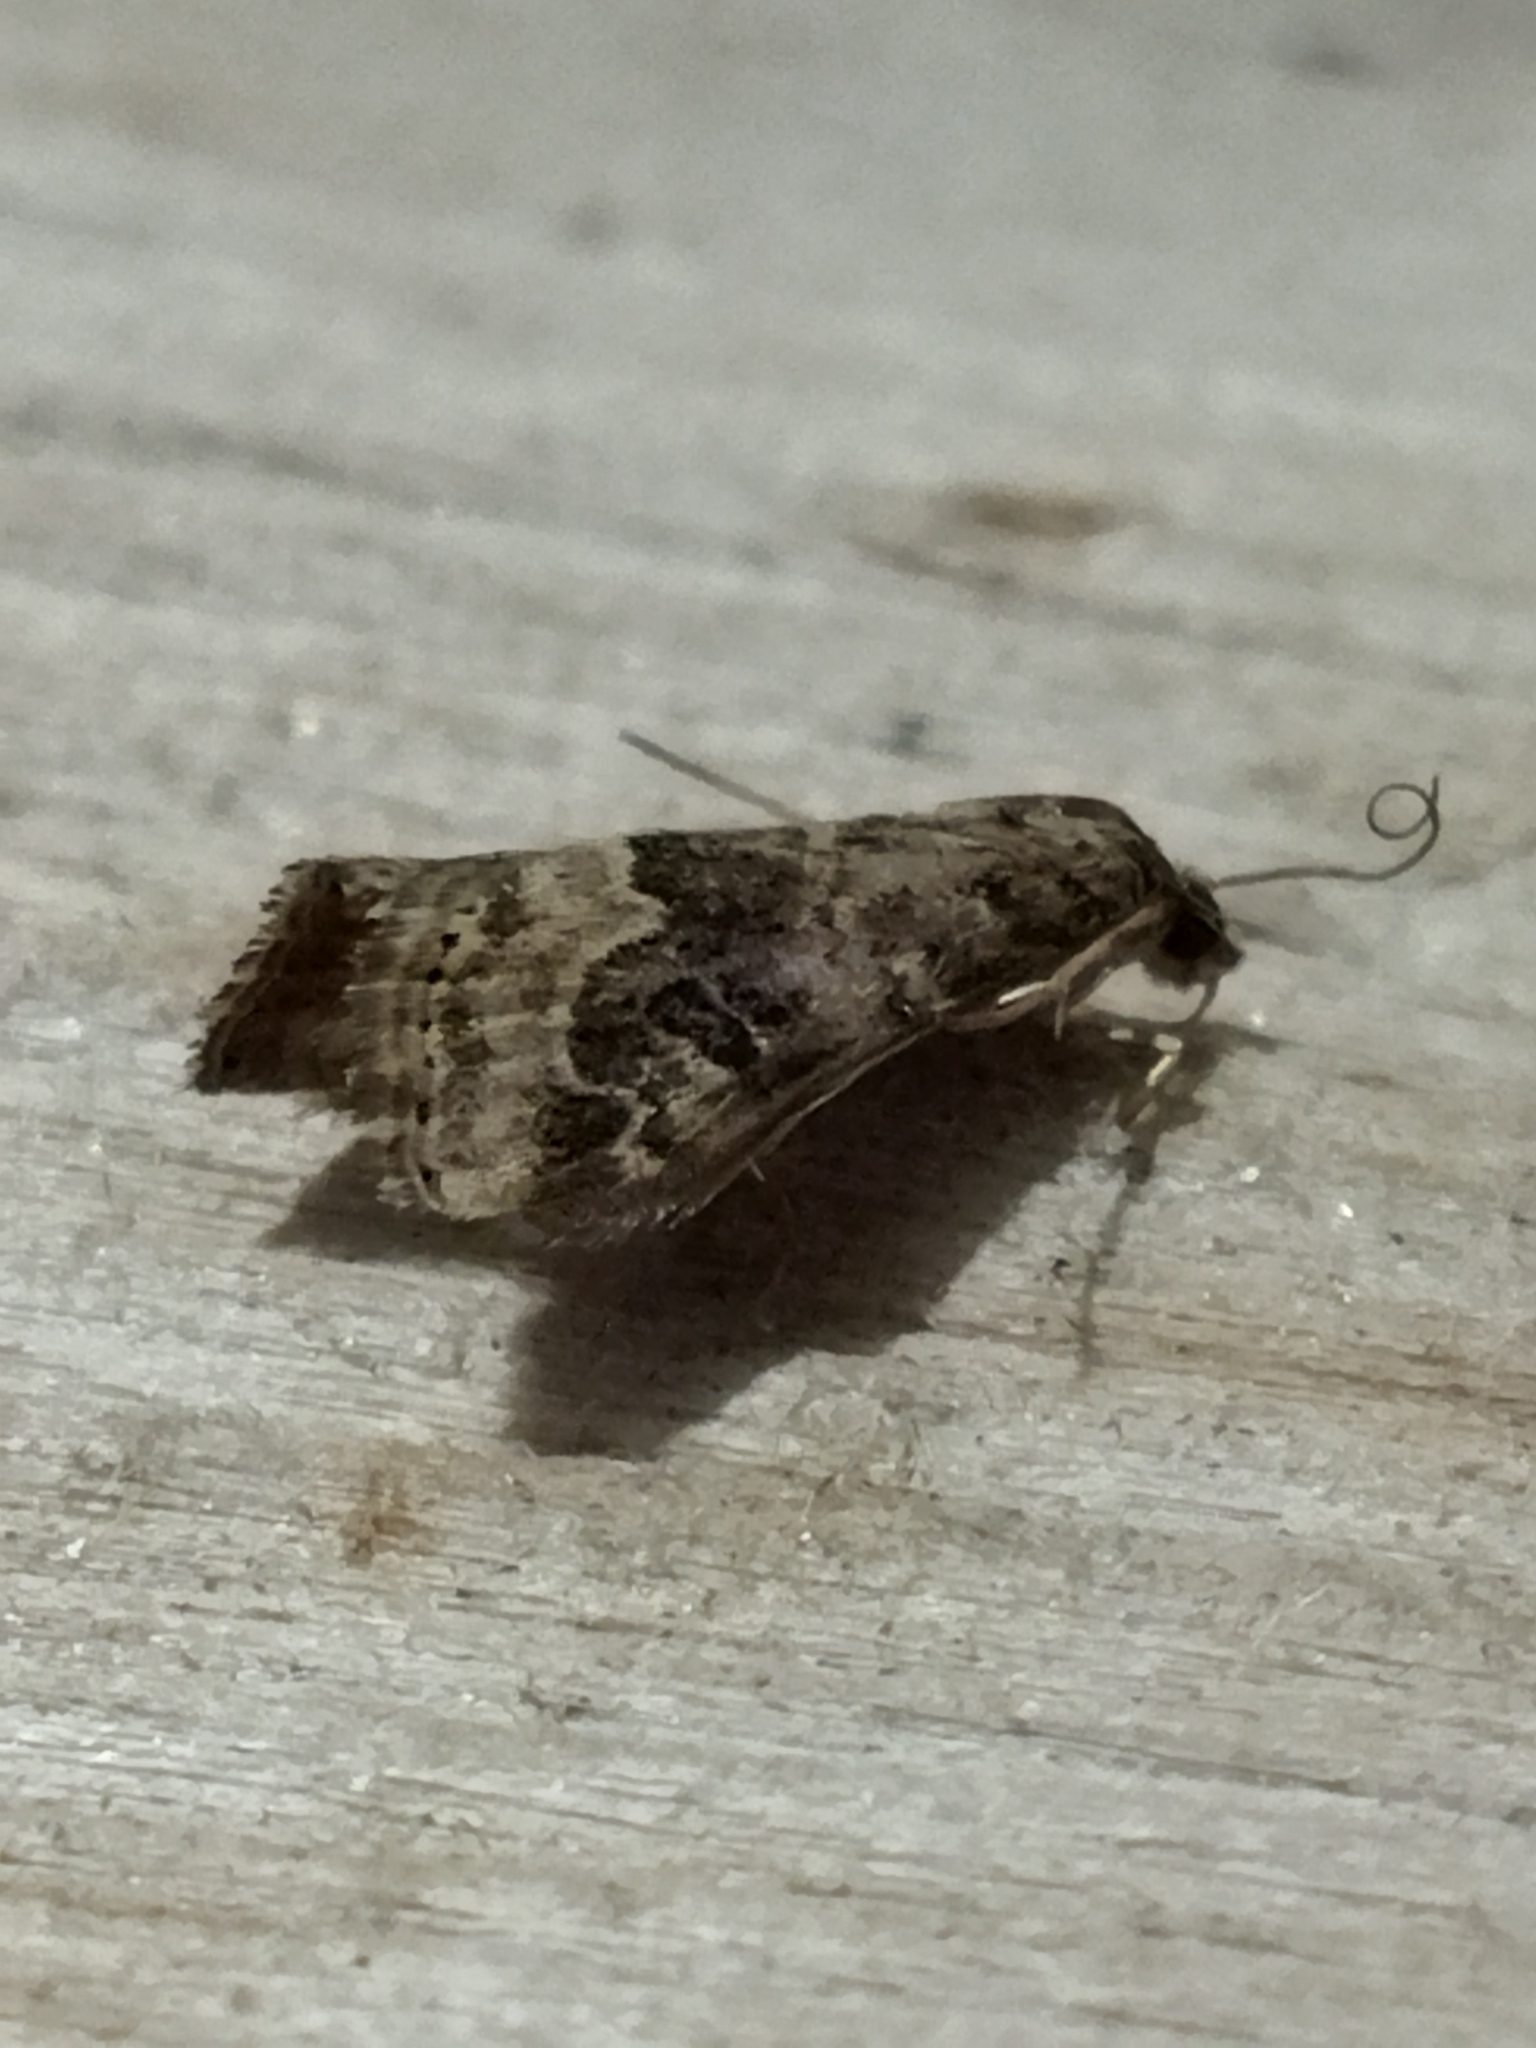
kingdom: Animalia
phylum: Arthropoda
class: Insecta
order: Lepidoptera
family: Crambidae
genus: Hellula
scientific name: Hellula undalis
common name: Cabbage webworm
